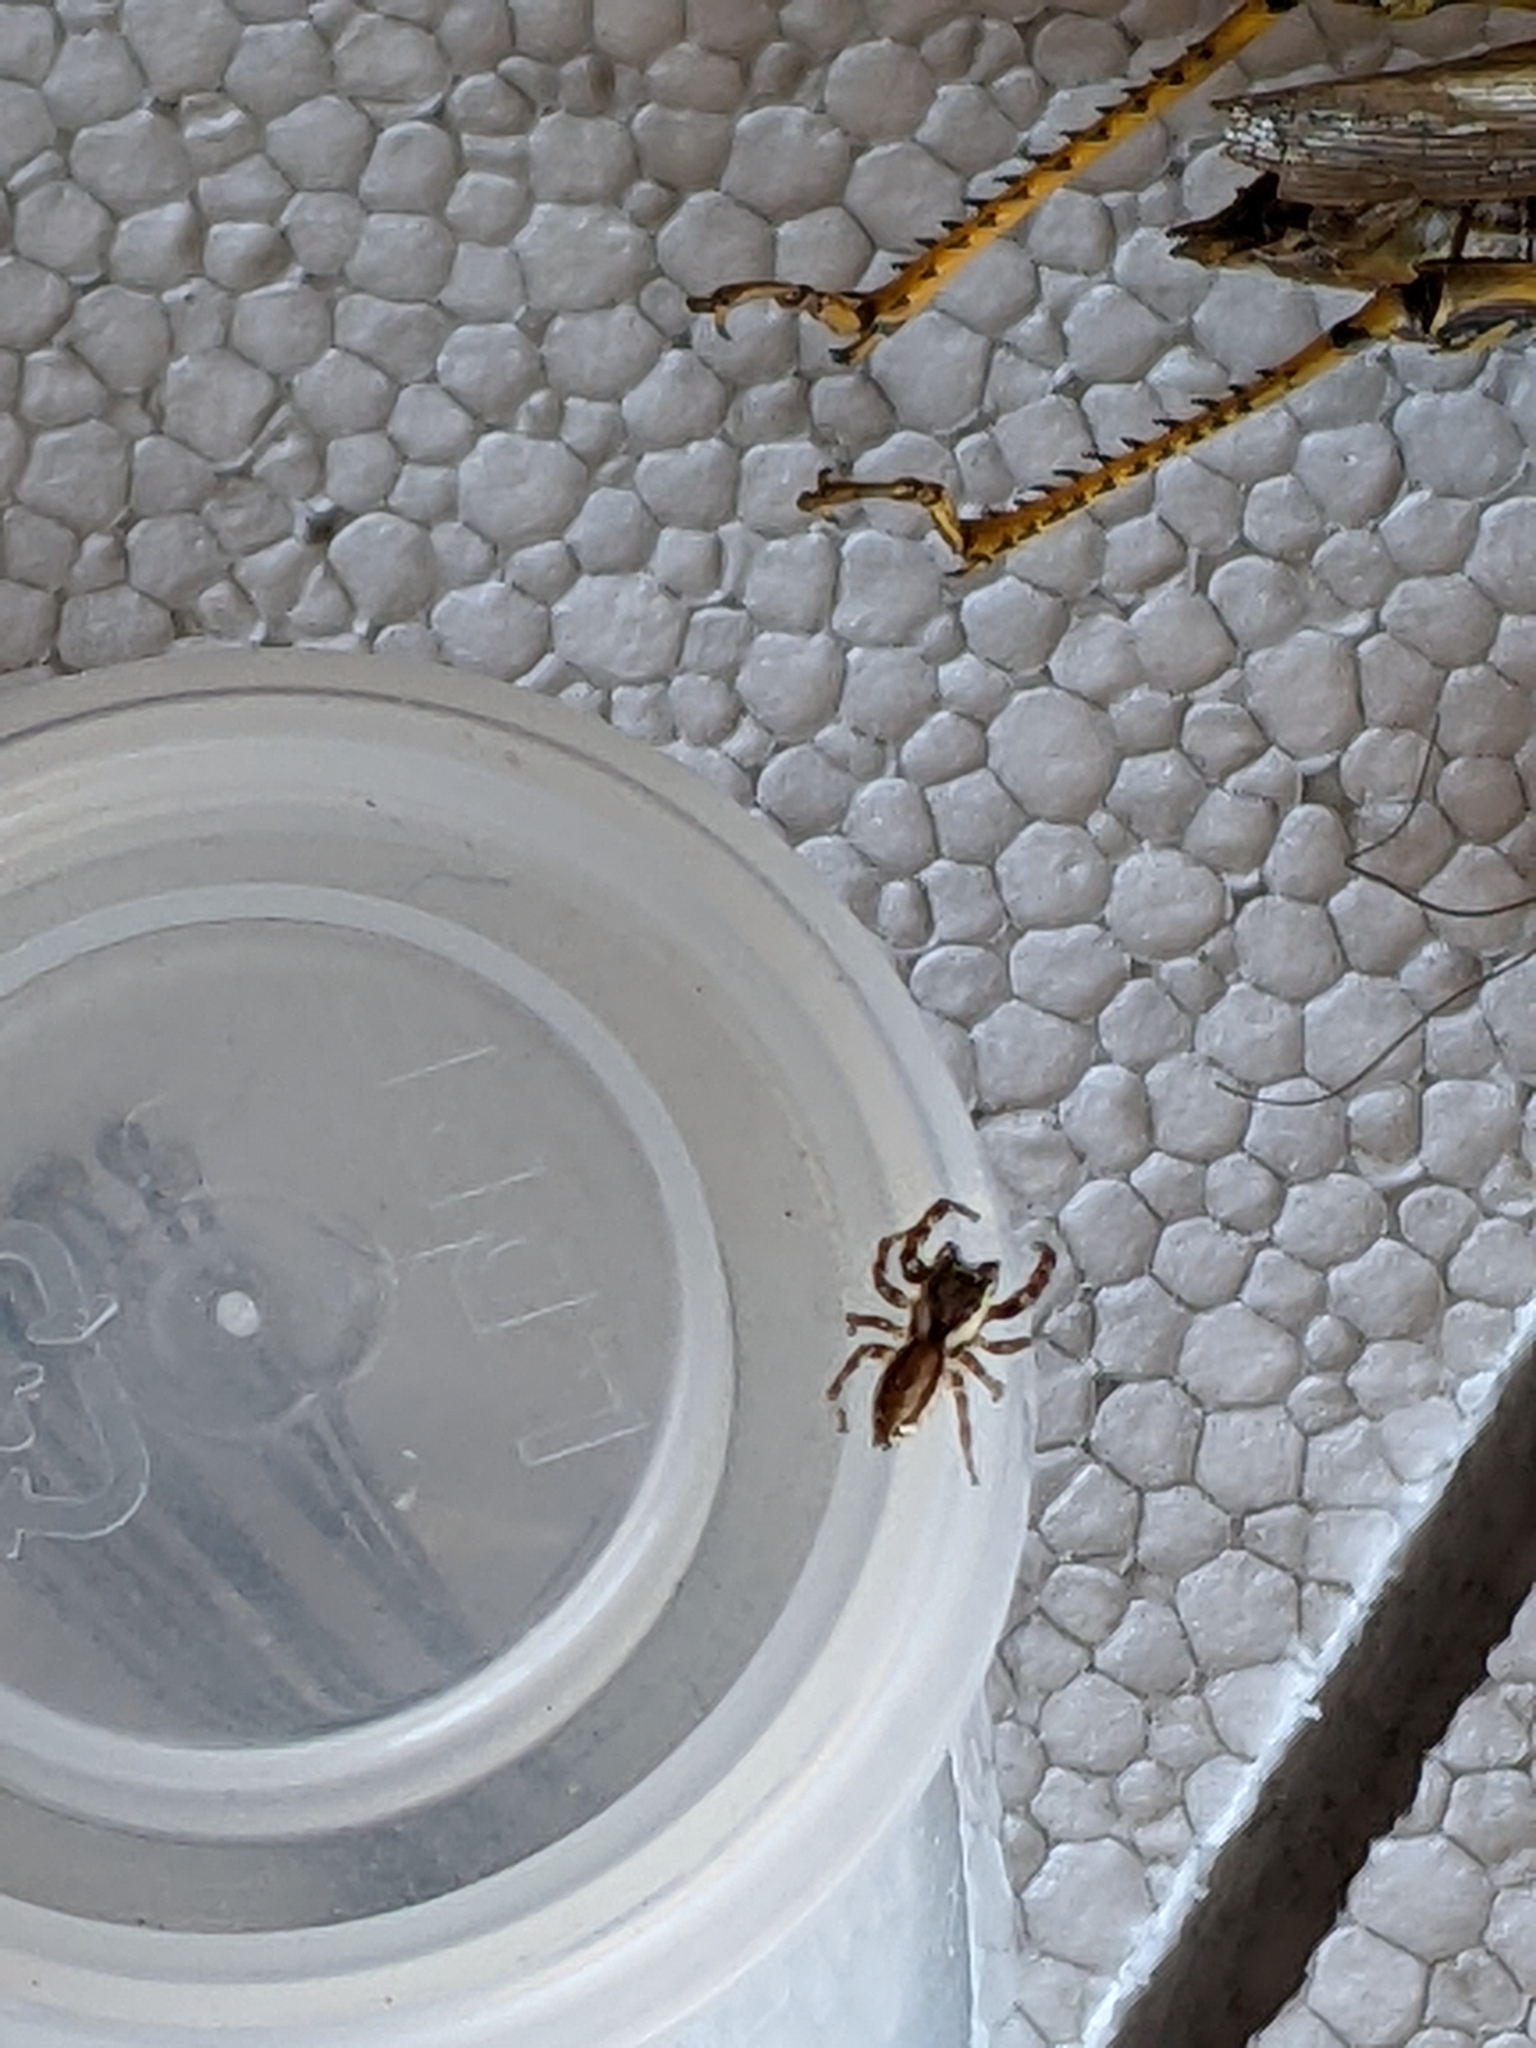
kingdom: Animalia
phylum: Arthropoda
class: Arachnida
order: Araneae
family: Salticidae
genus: Pelegrina
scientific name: Pelegrina proterva
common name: Common white-cheeked jumping spider
